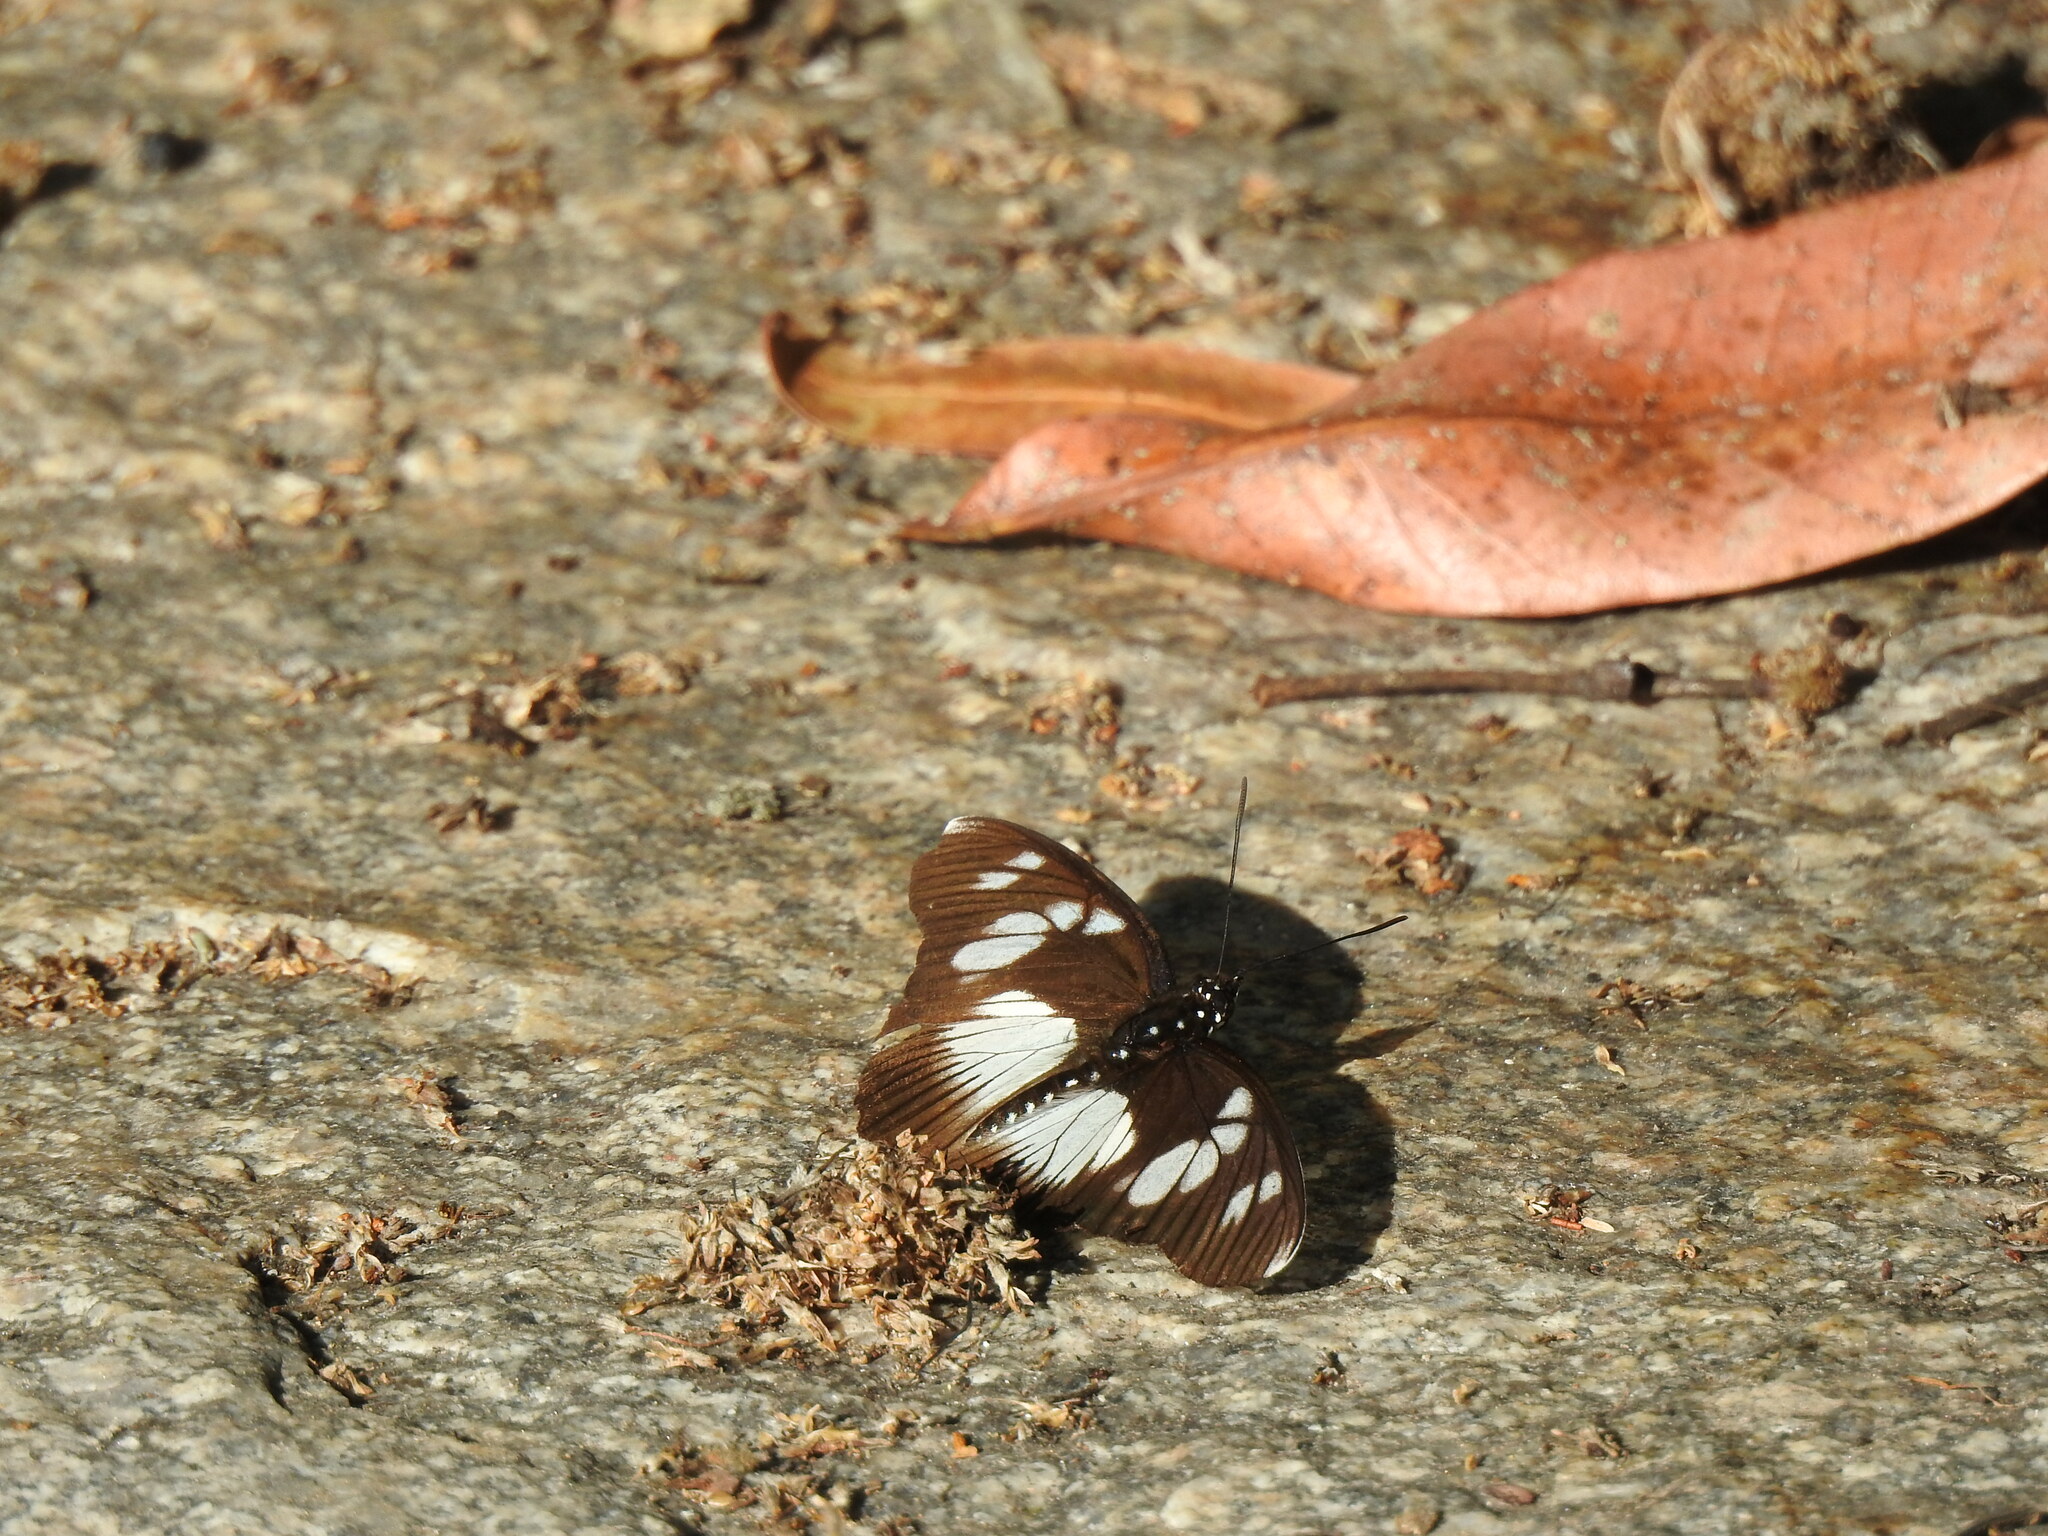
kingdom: Animalia
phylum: Arthropoda
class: Insecta
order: Lepidoptera
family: Nymphalidae
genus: Chloropoea
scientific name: Chloropoea lucretia
